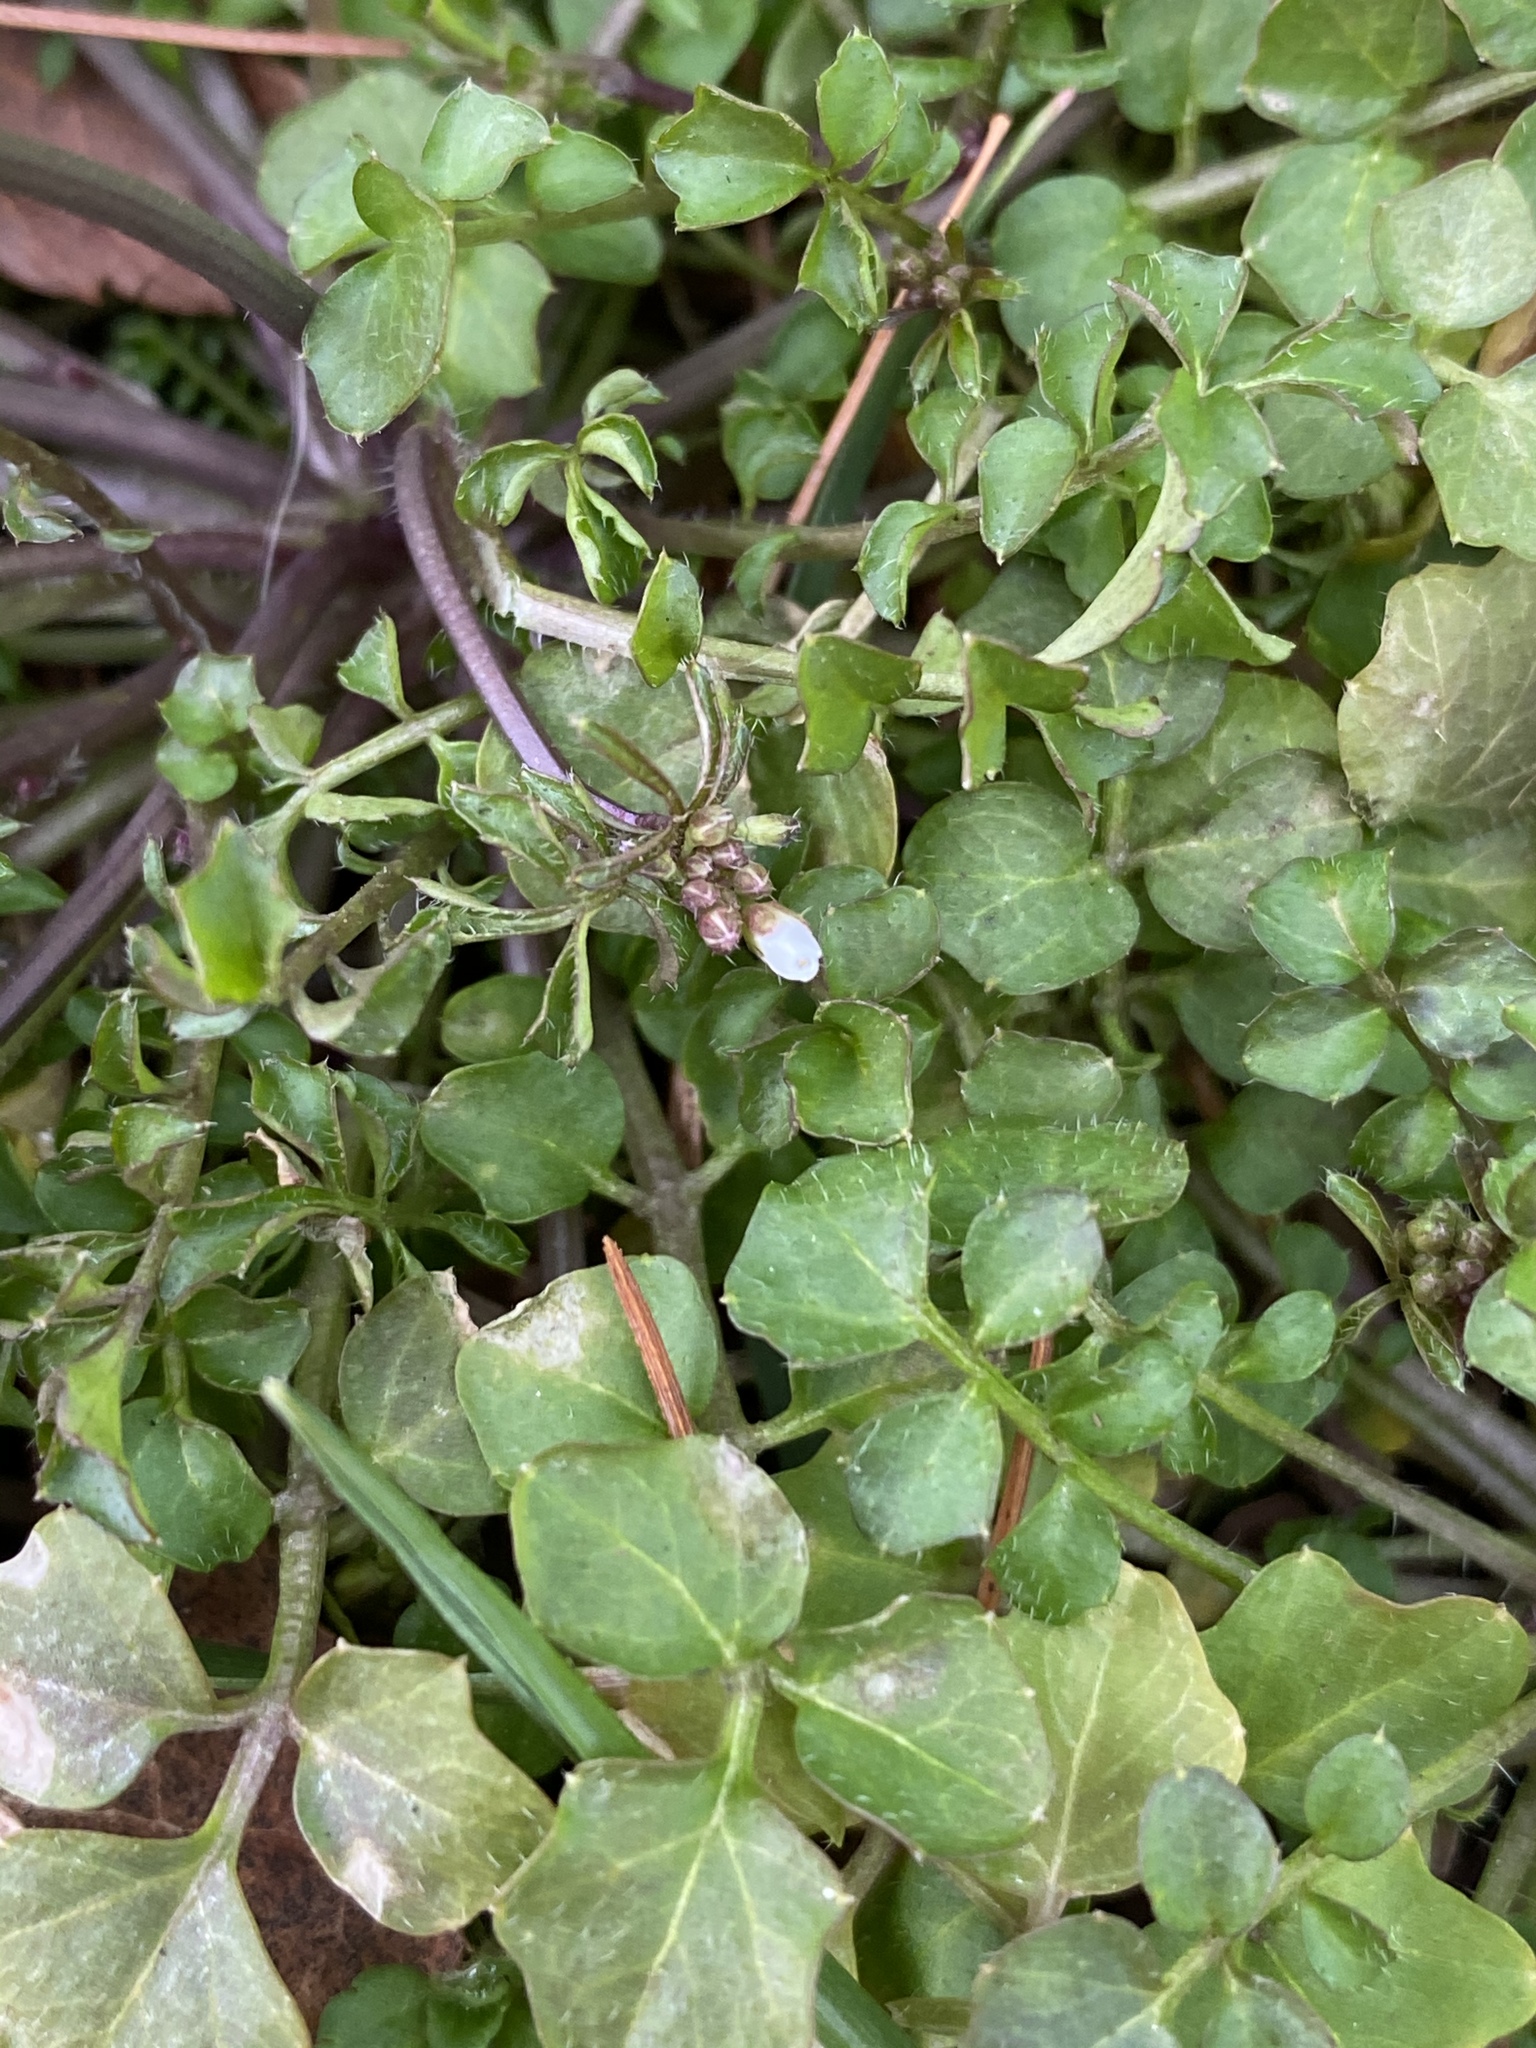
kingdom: Plantae
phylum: Tracheophyta
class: Magnoliopsida
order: Brassicales
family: Brassicaceae
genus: Cardamine
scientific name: Cardamine hirsuta
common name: Hairy bittercress
